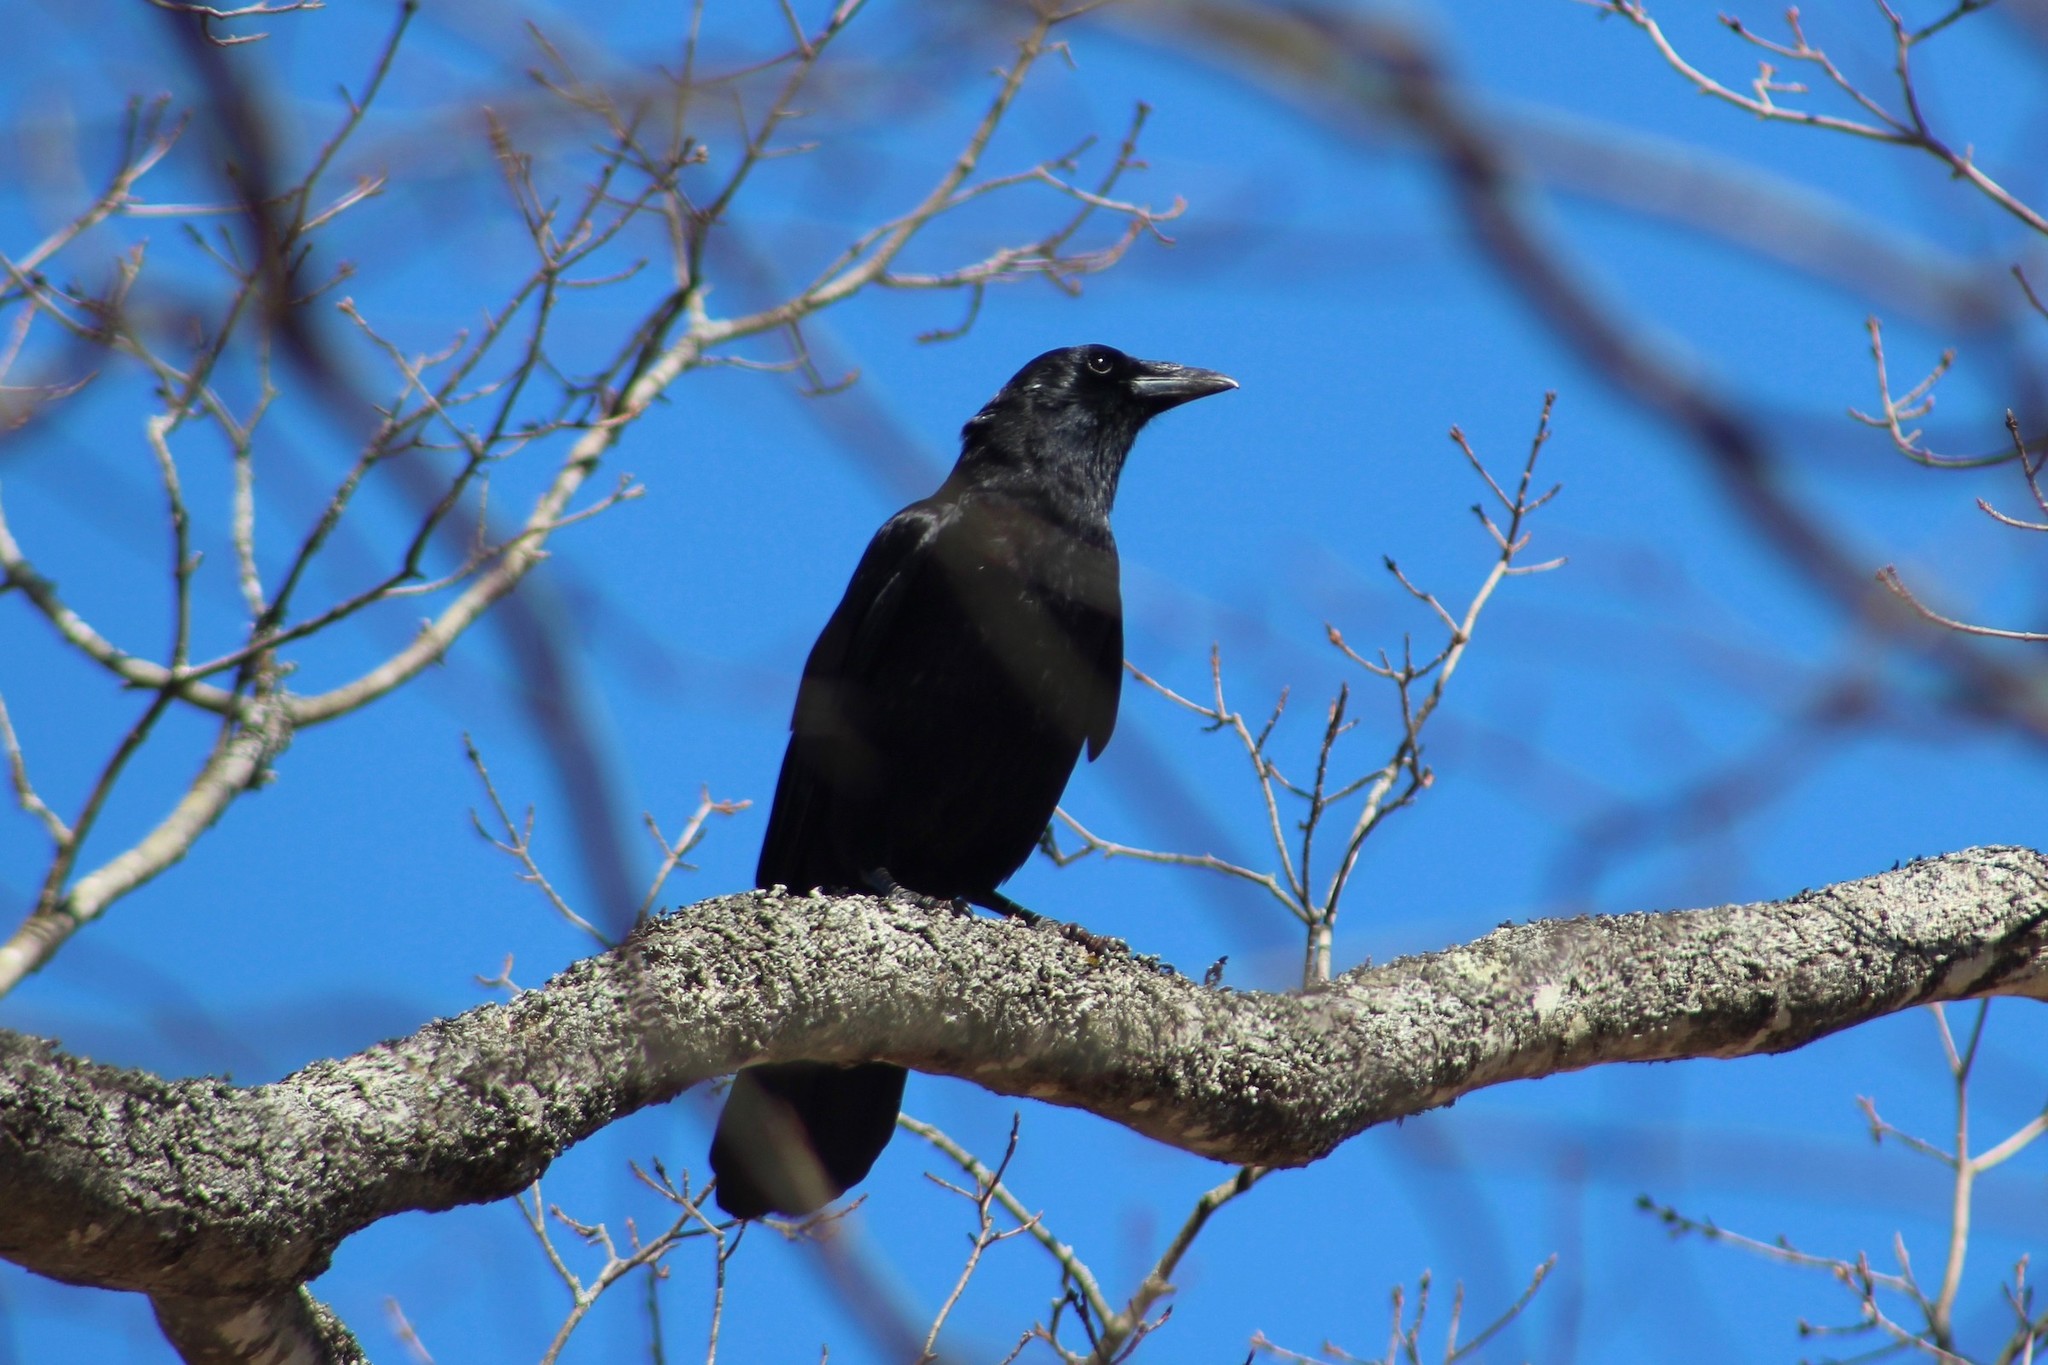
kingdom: Animalia
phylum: Chordata
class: Aves
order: Passeriformes
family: Corvidae
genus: Corvus
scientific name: Corvus brachyrhynchos
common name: American crow
